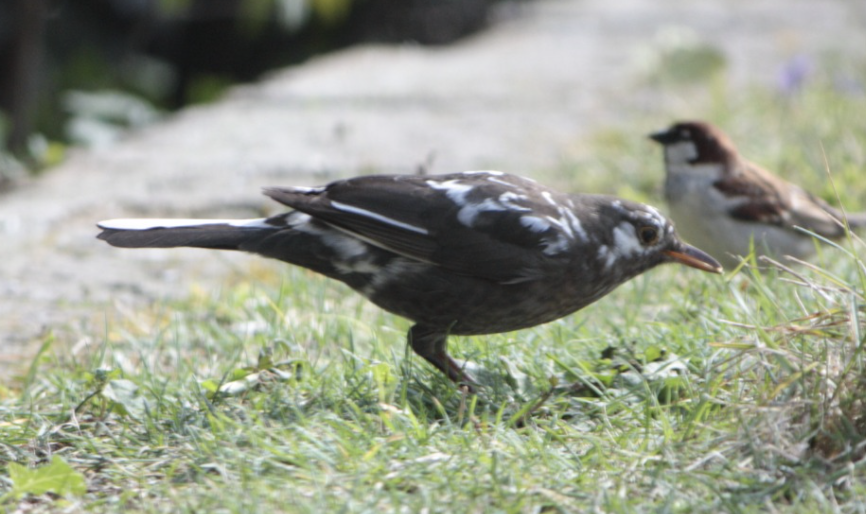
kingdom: Animalia
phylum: Chordata
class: Aves
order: Passeriformes
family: Turdidae
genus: Turdus
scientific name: Turdus merula
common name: Common blackbird
